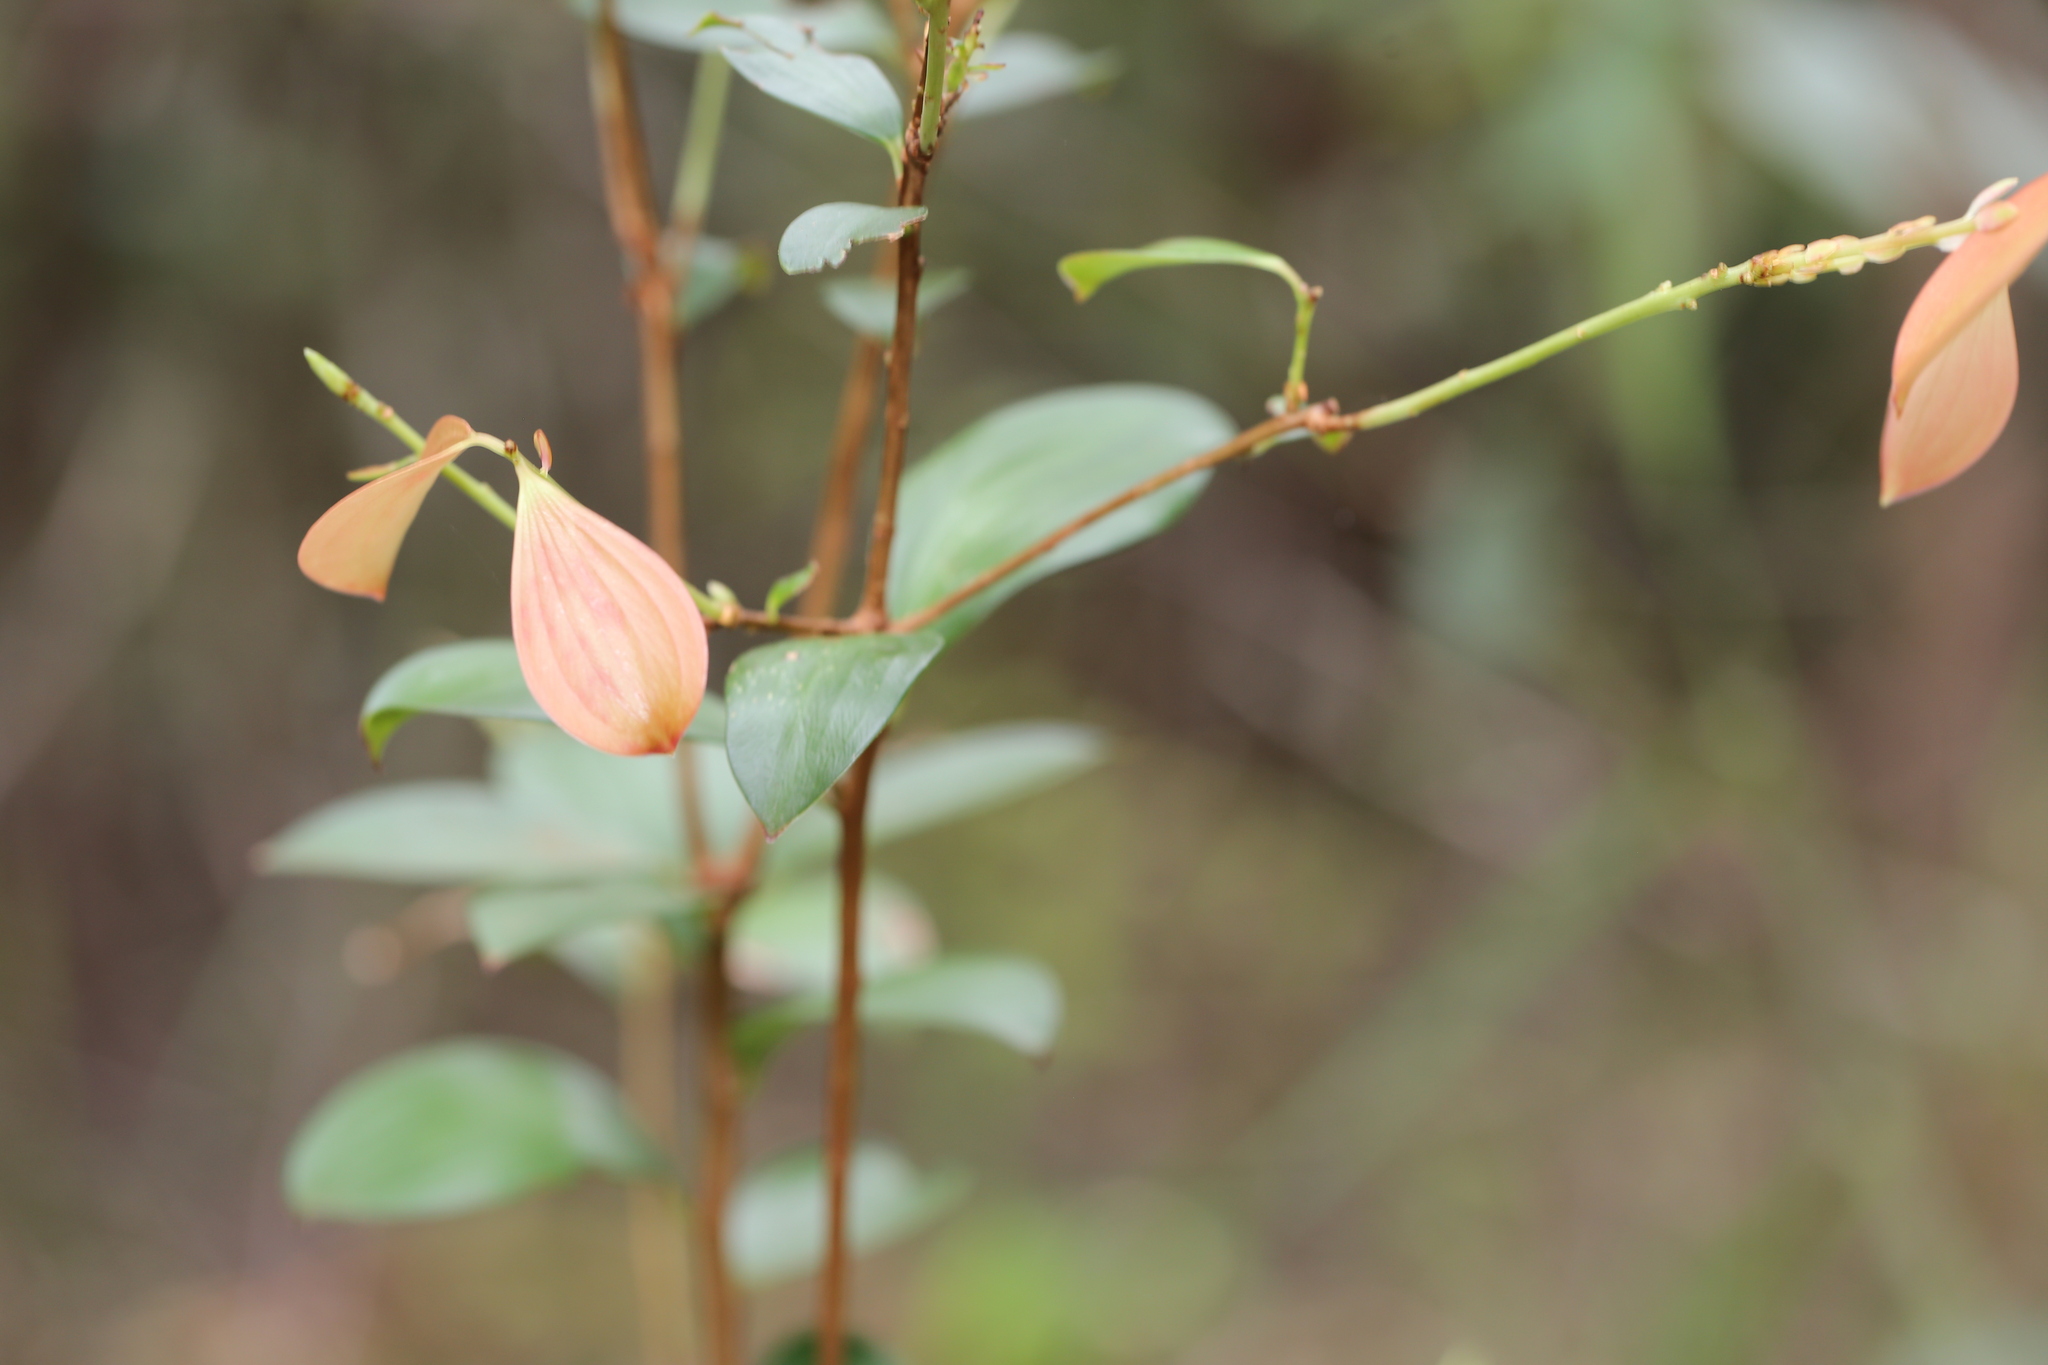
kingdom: Plantae
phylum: Tracheophyta
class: Magnoliopsida
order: Ericales
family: Ericaceae
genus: Trochocarpa
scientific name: Trochocarpa laurina
